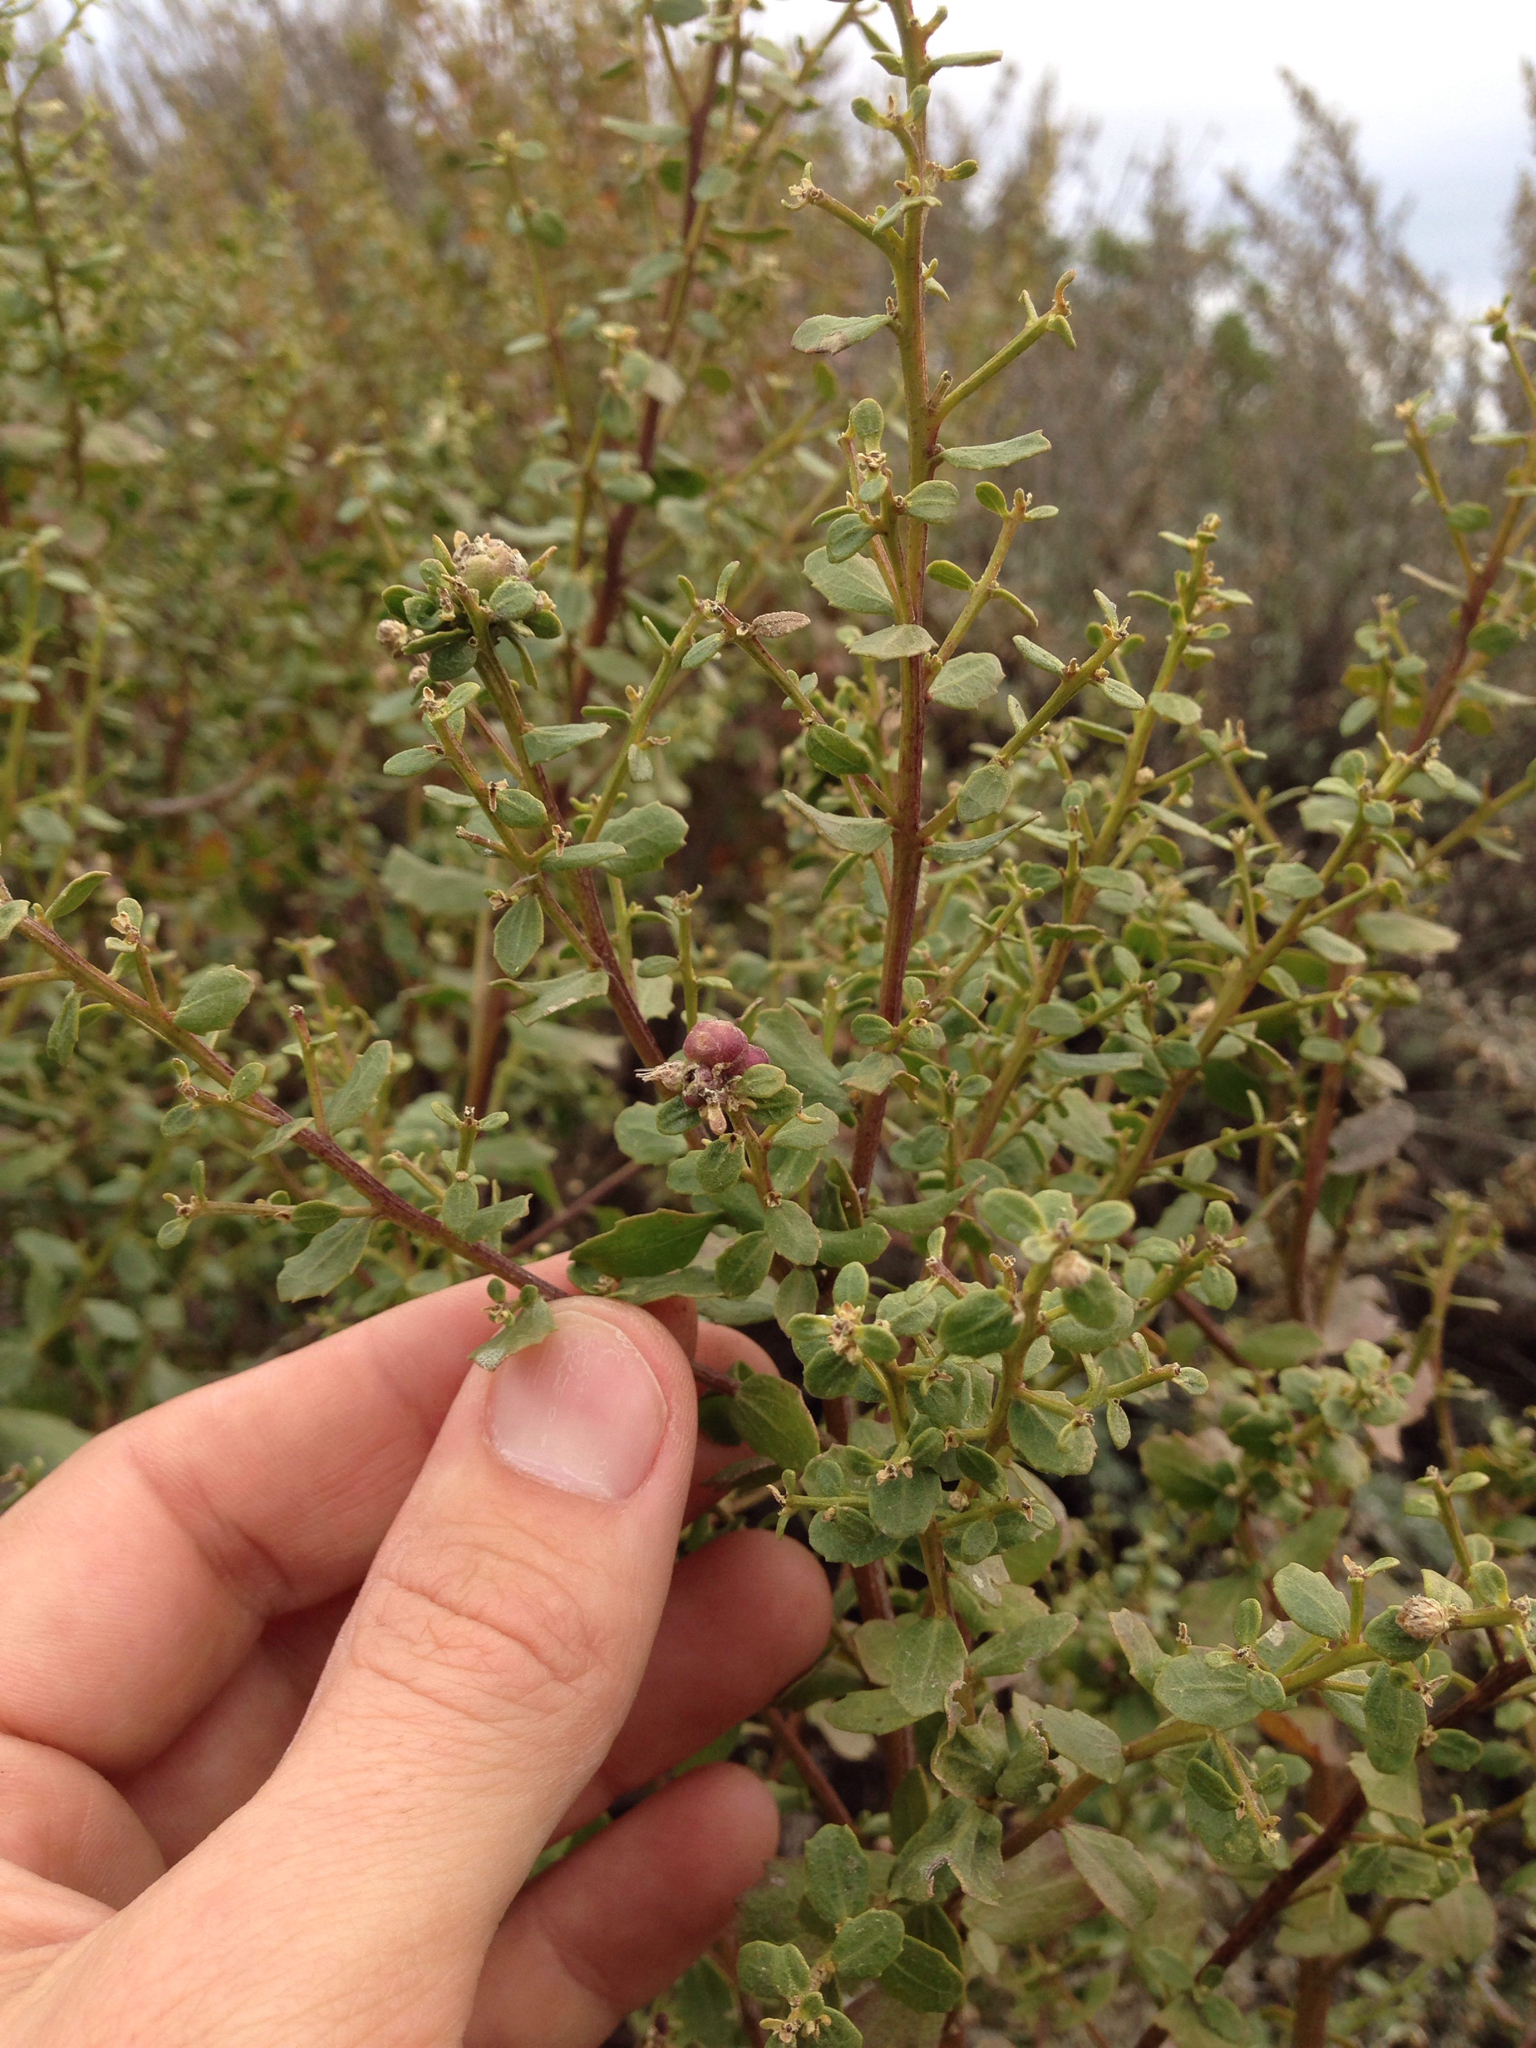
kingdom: Plantae
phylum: Tracheophyta
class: Magnoliopsida
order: Asterales
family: Asteraceae
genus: Baccharis
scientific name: Baccharis pilularis
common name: Coyotebrush
